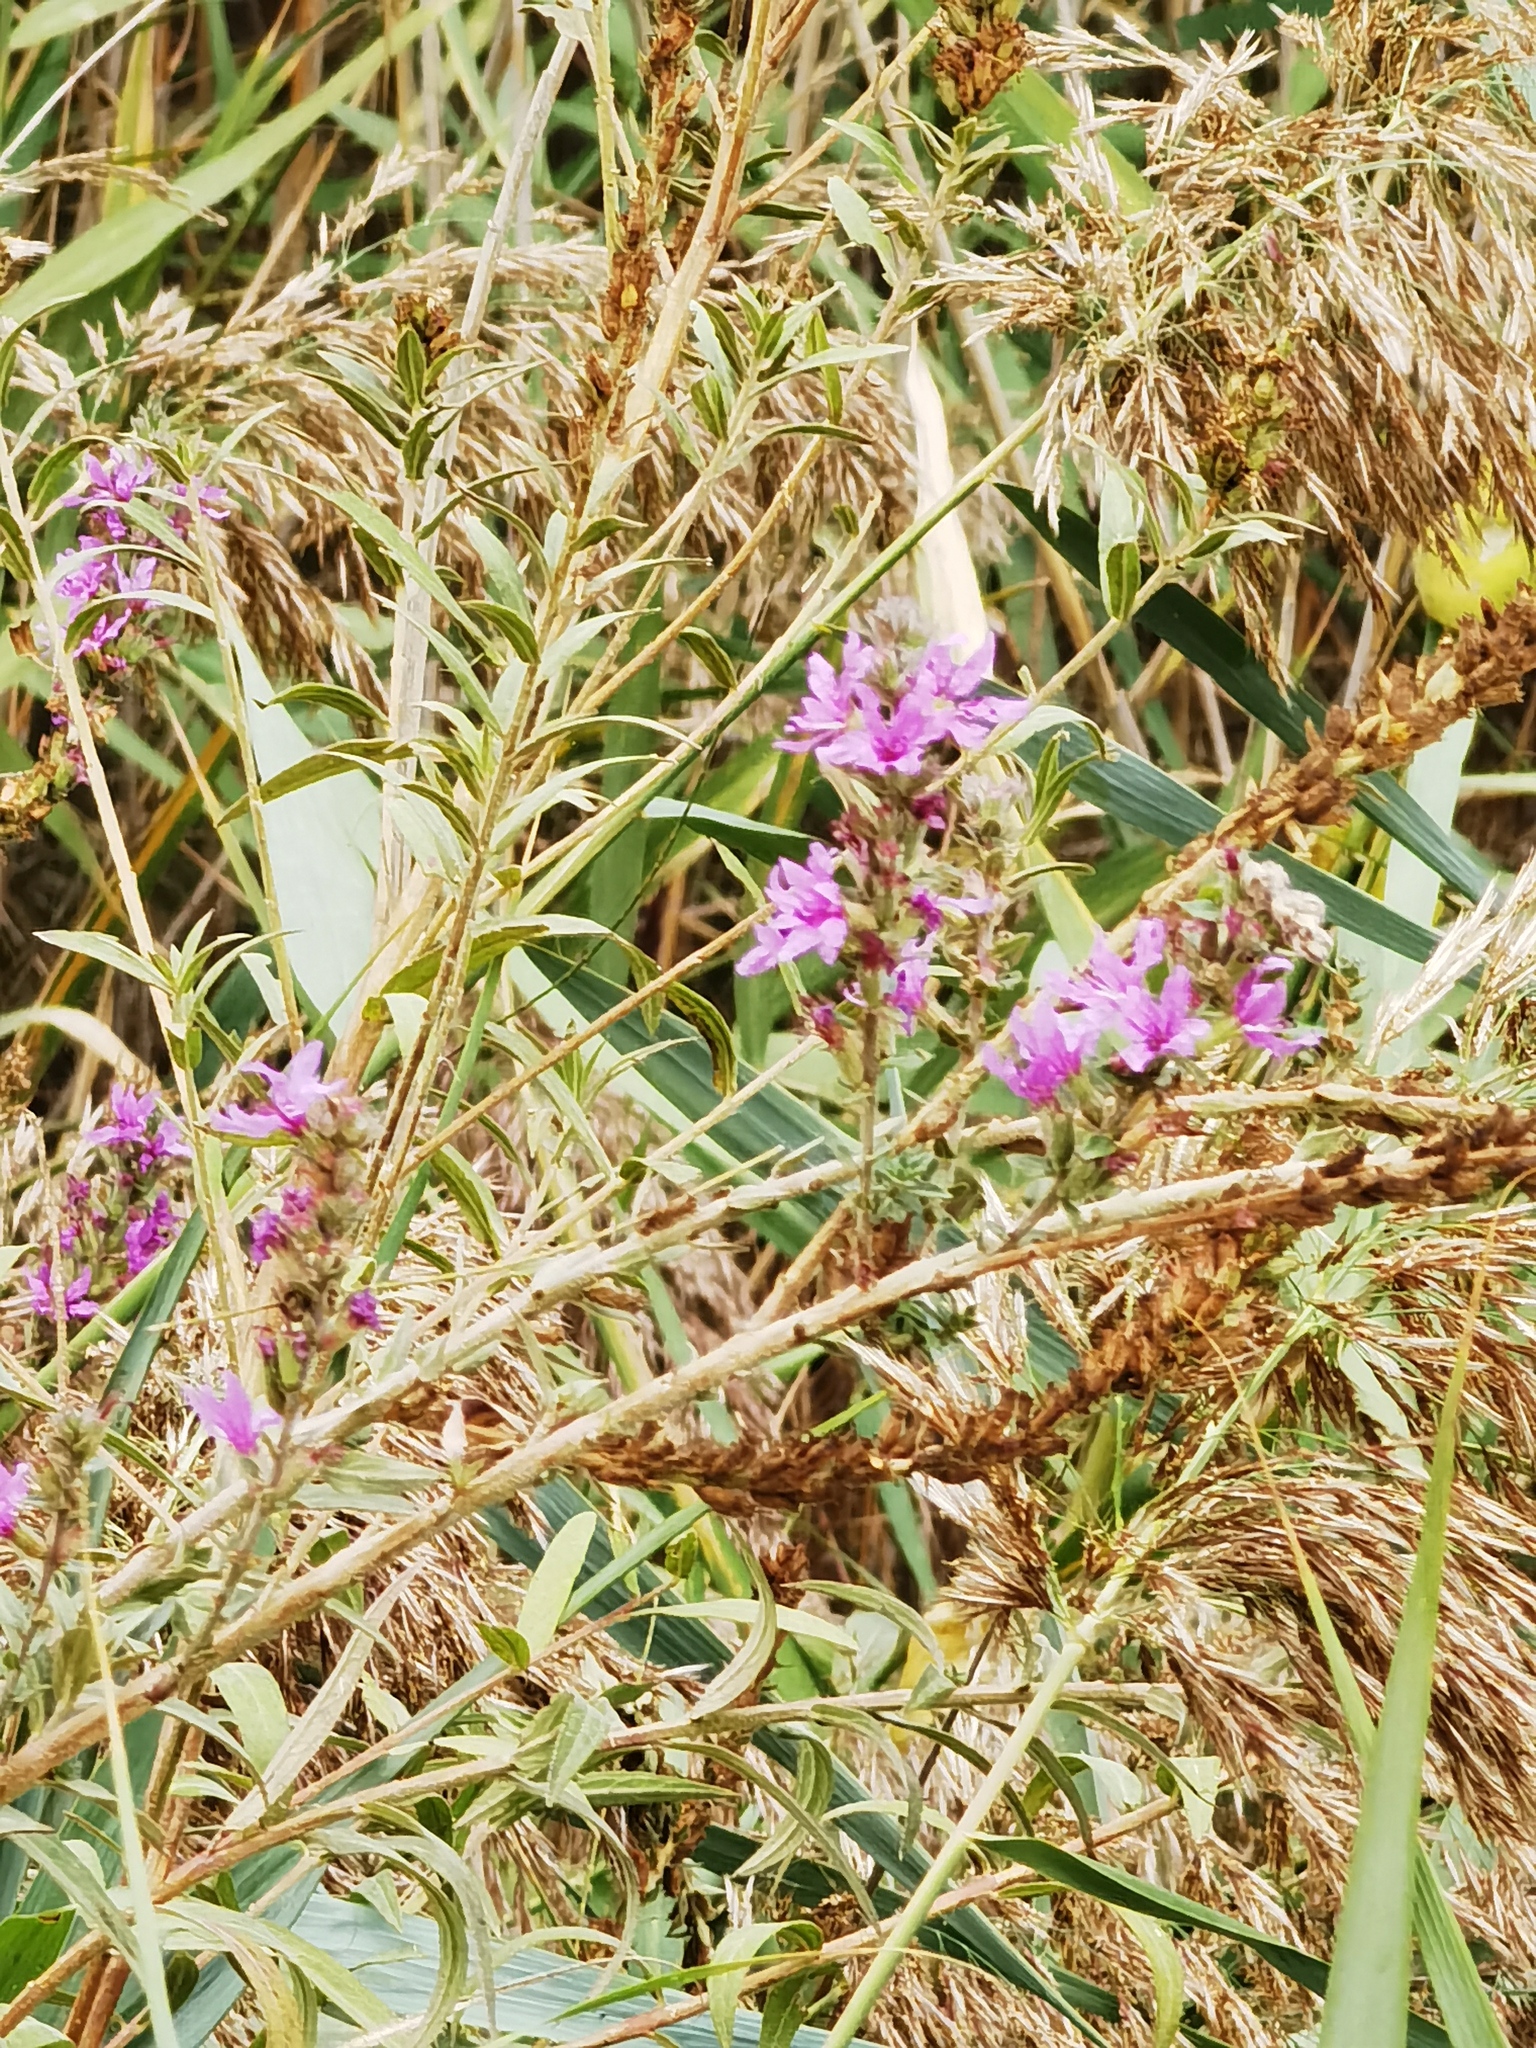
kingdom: Plantae
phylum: Tracheophyta
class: Magnoliopsida
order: Myrtales
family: Lythraceae
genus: Lythrum
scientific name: Lythrum salicaria
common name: Purple loosestrife
